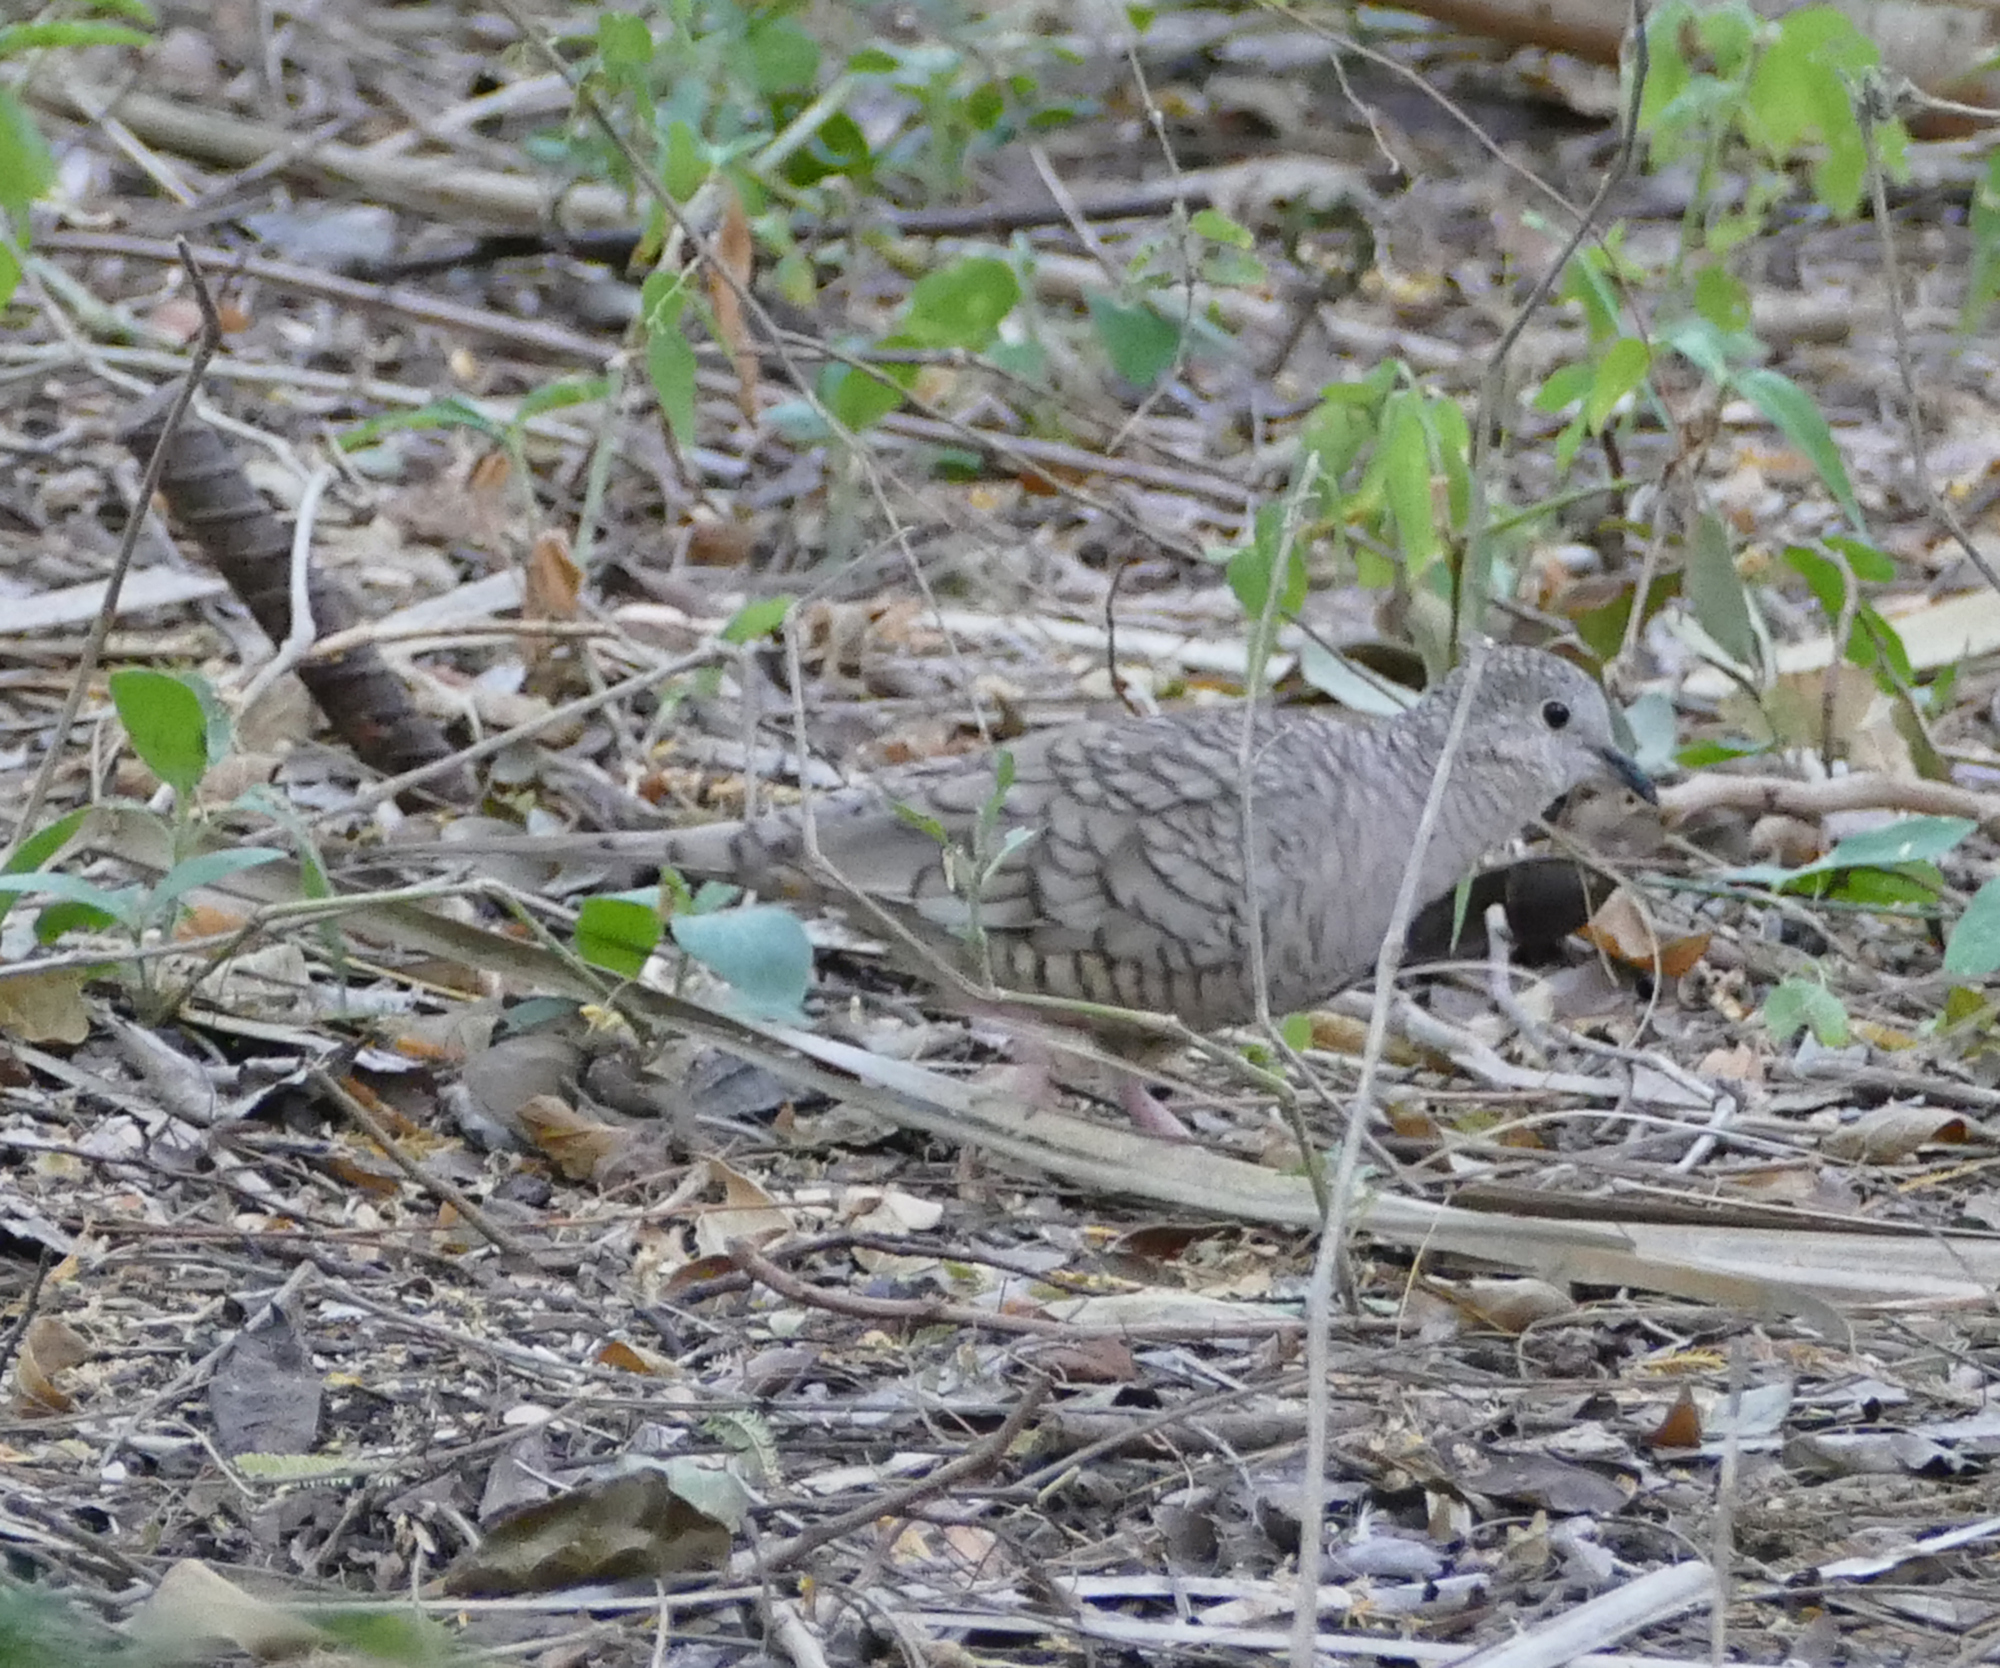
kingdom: Animalia
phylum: Chordata
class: Aves
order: Columbiformes
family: Columbidae
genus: Columbina
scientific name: Columbina inca
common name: Inca dove
